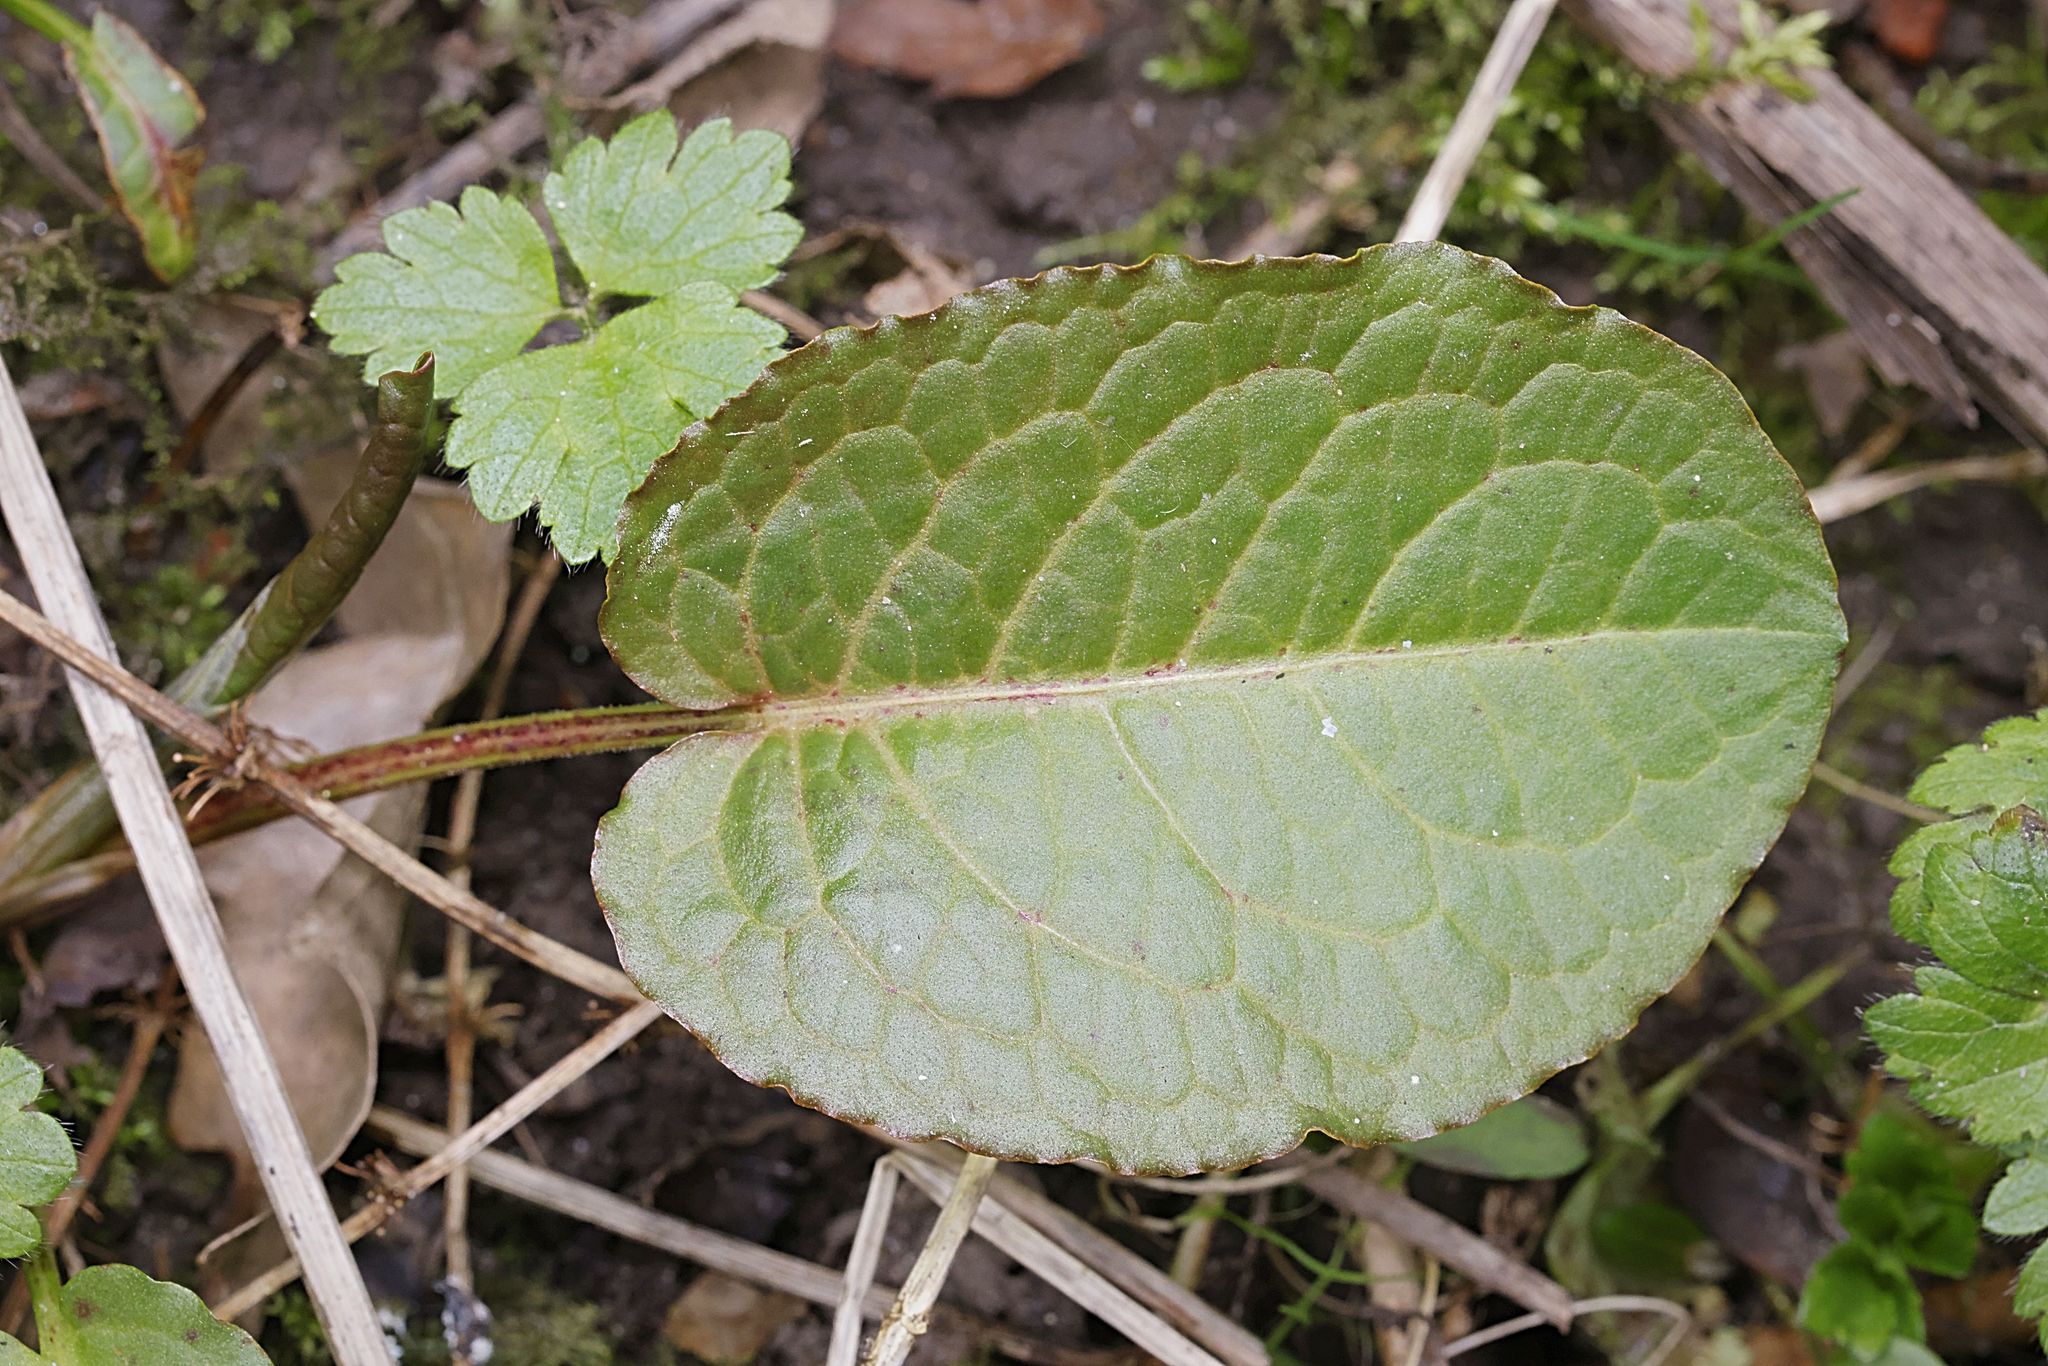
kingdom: Plantae
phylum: Tracheophyta
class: Magnoliopsida
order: Caryophyllales
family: Polygonaceae
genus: Rumex
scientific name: Rumex obtusifolius
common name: Bitter dock
